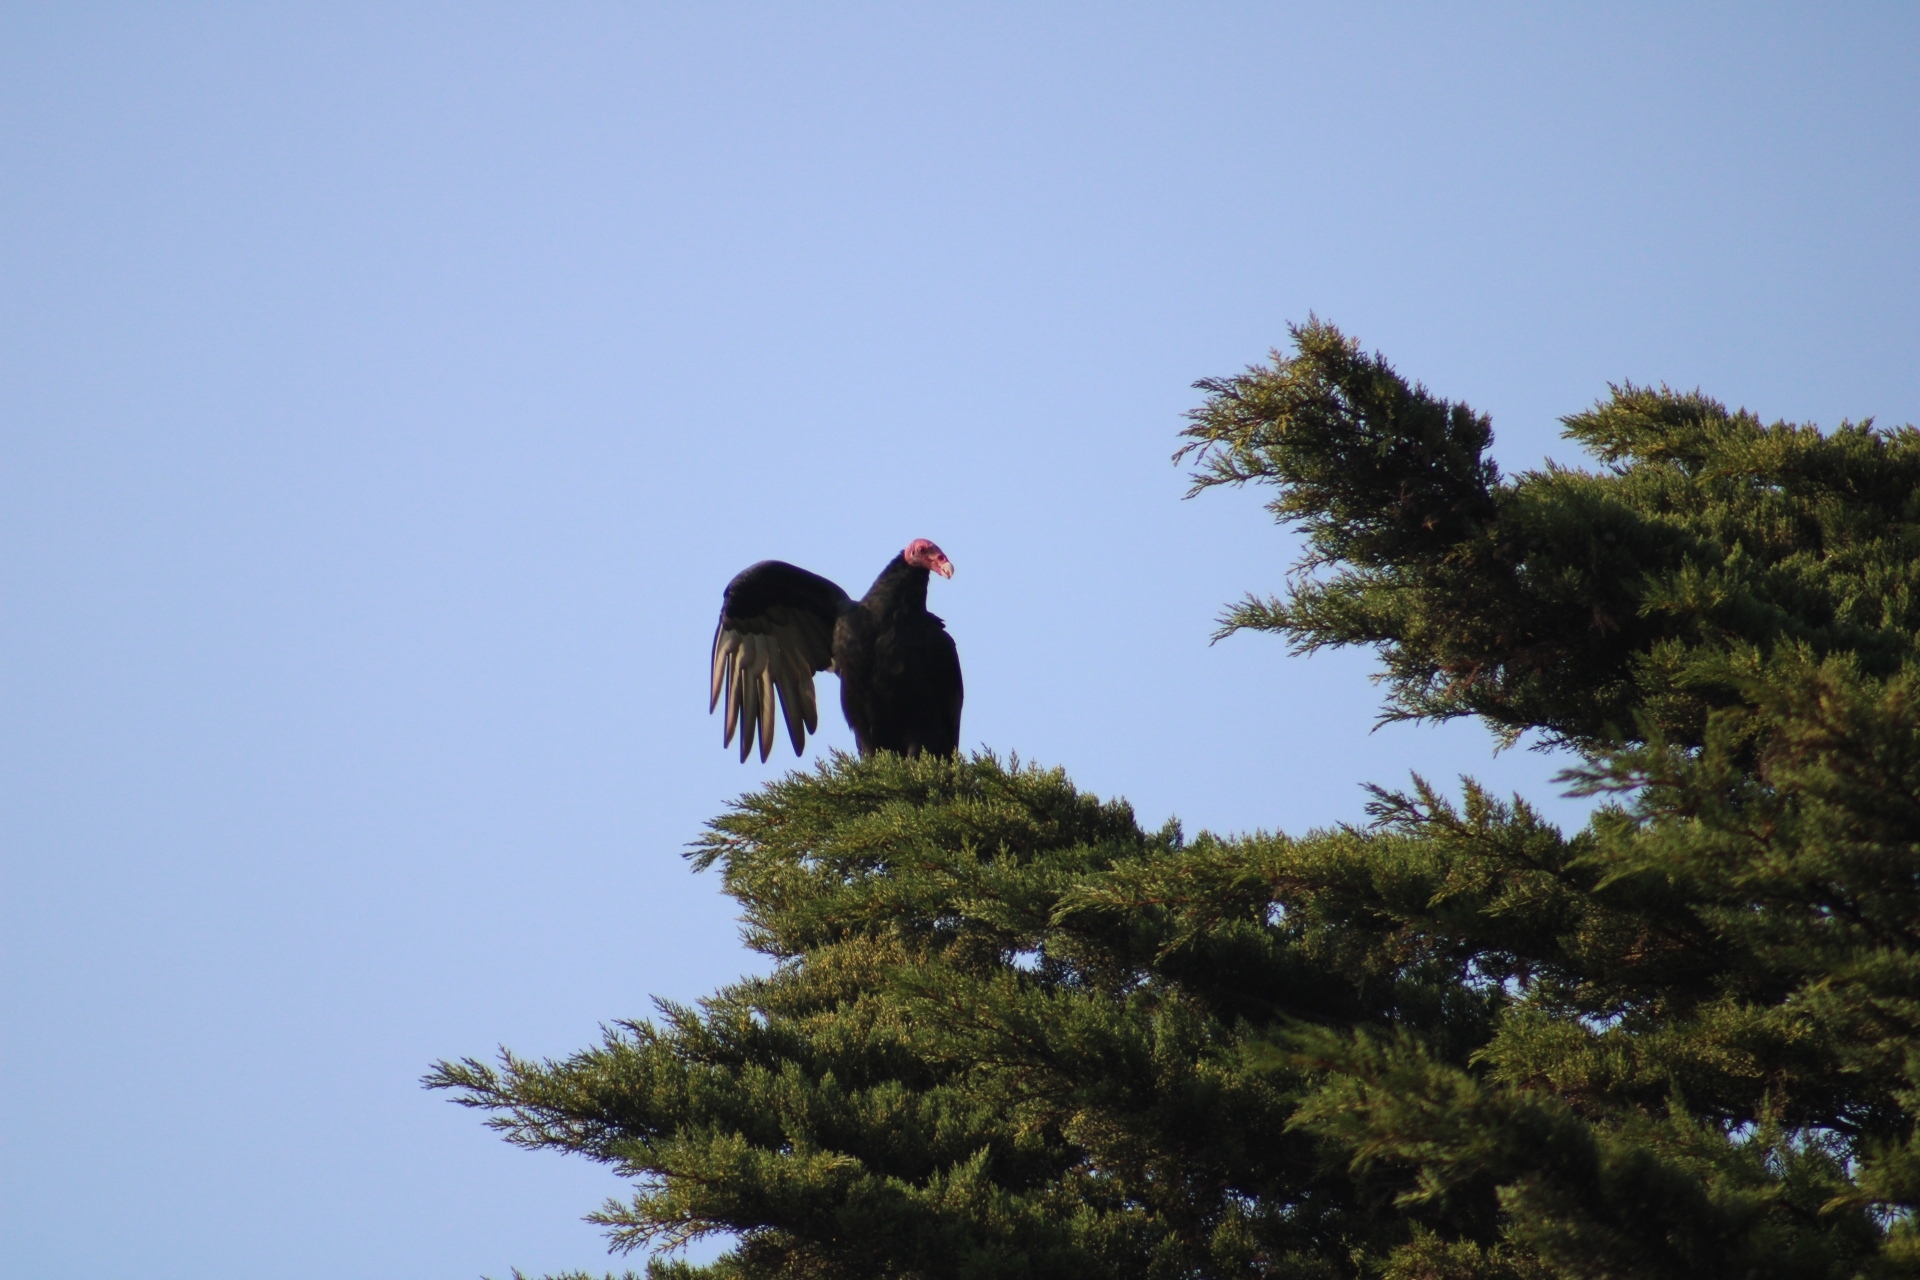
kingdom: Animalia
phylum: Chordata
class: Aves
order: Accipitriformes
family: Cathartidae
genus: Cathartes
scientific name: Cathartes aura
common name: Turkey vulture
